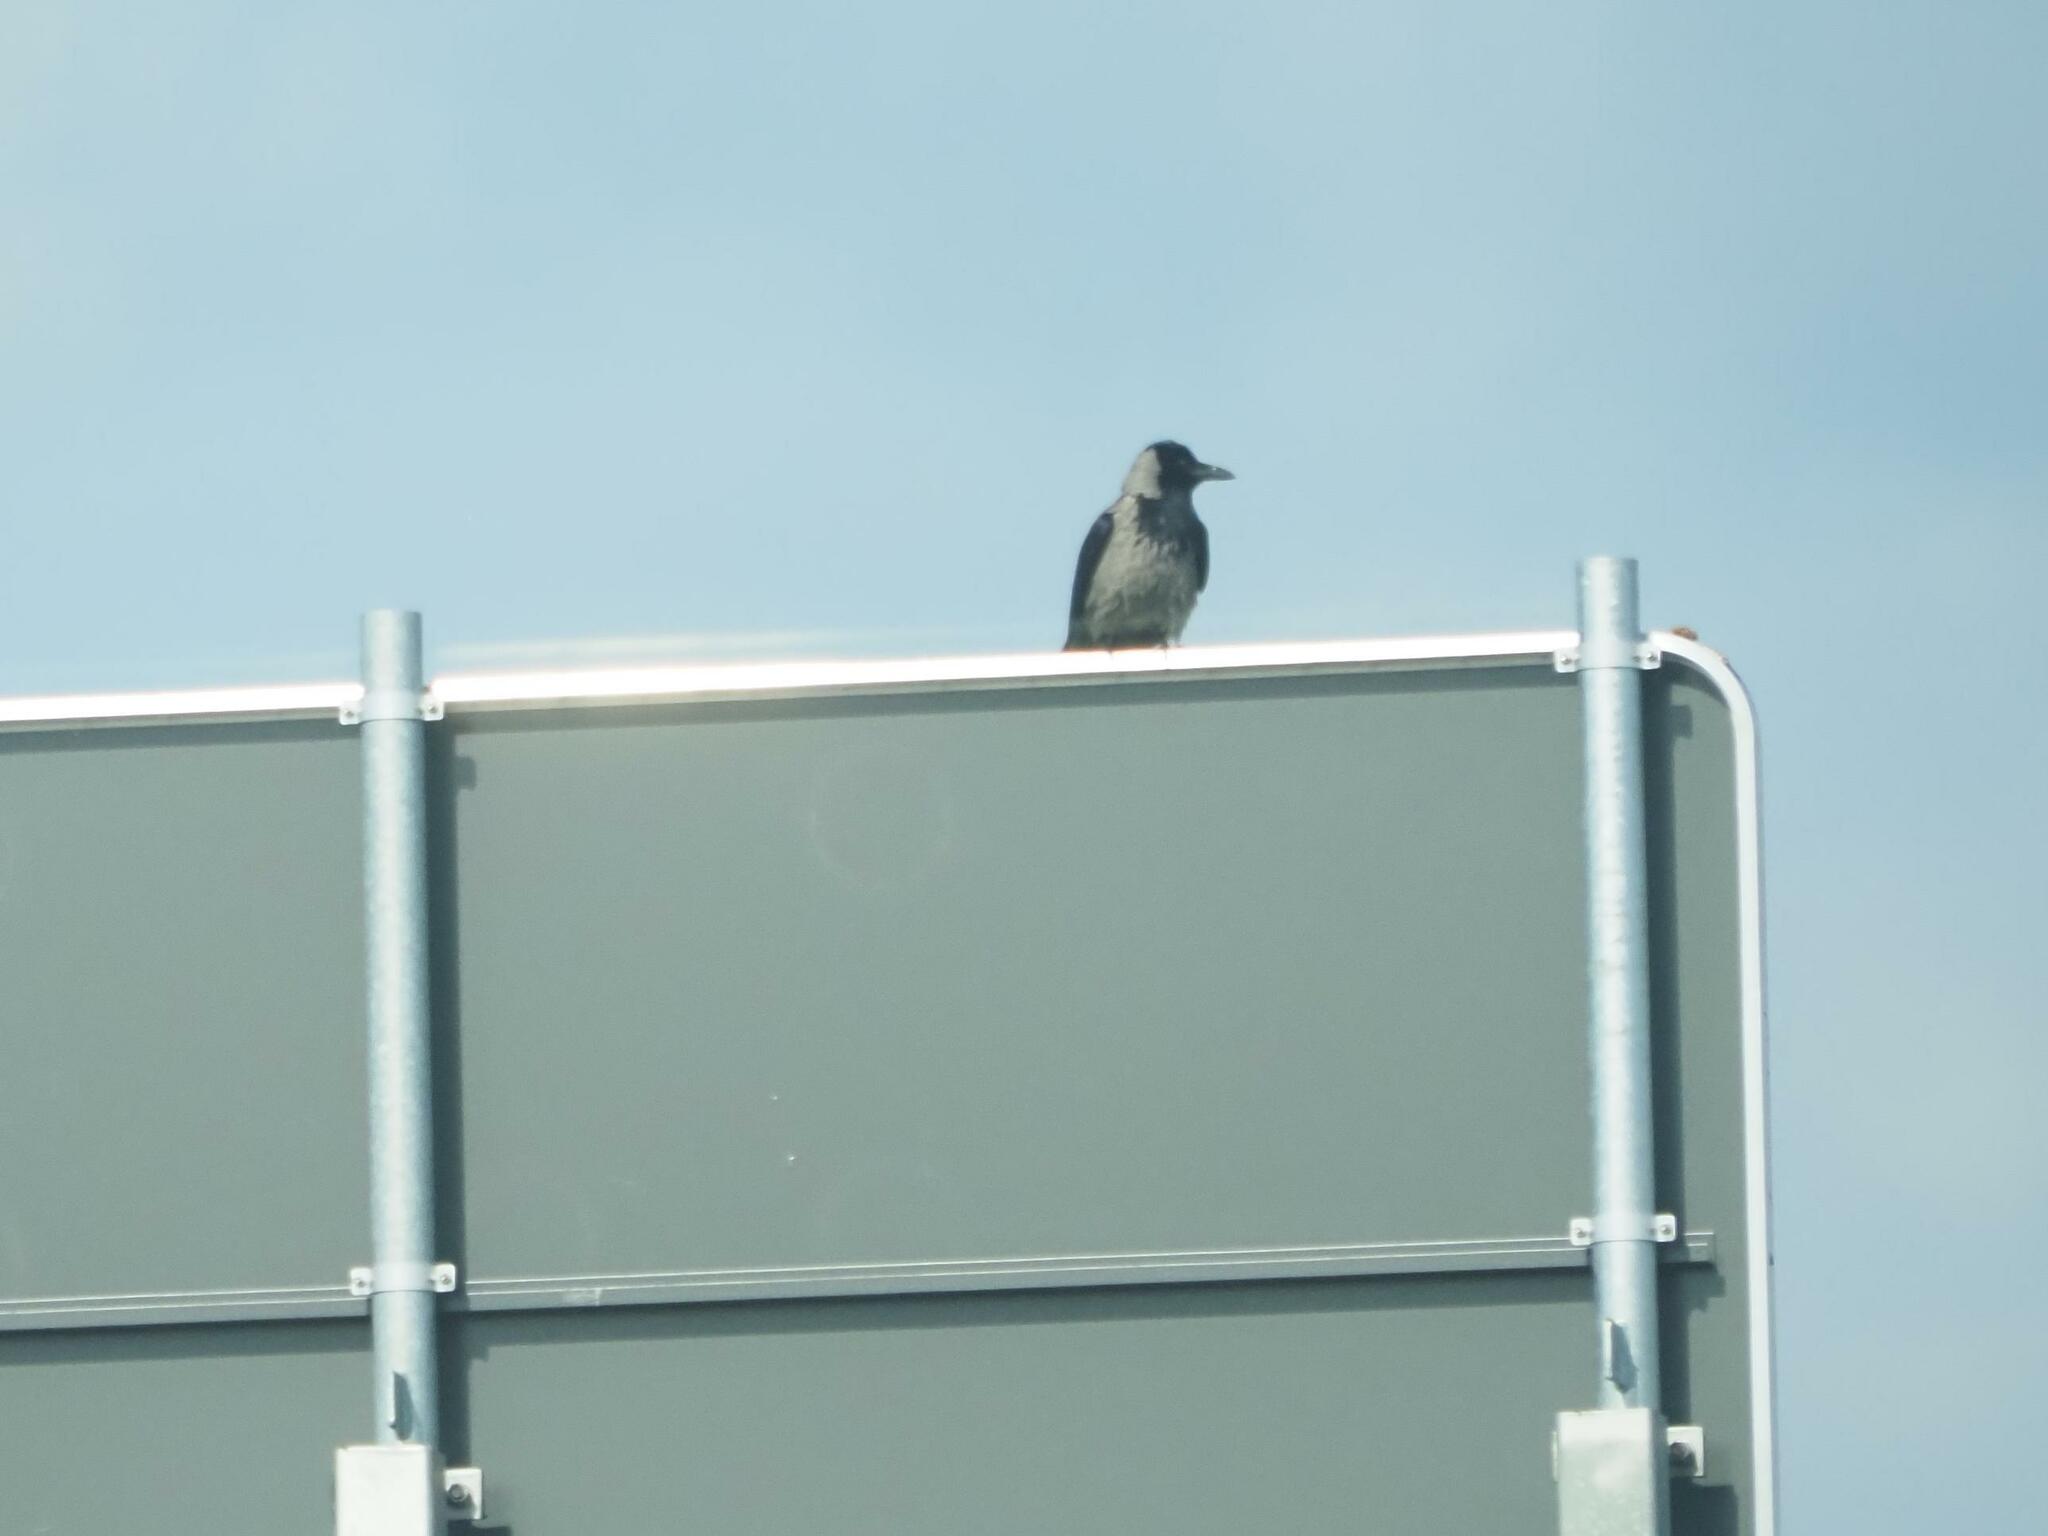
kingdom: Animalia
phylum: Chordata
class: Aves
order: Passeriformes
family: Corvidae
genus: Corvus
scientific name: Corvus cornix
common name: Hooded crow
